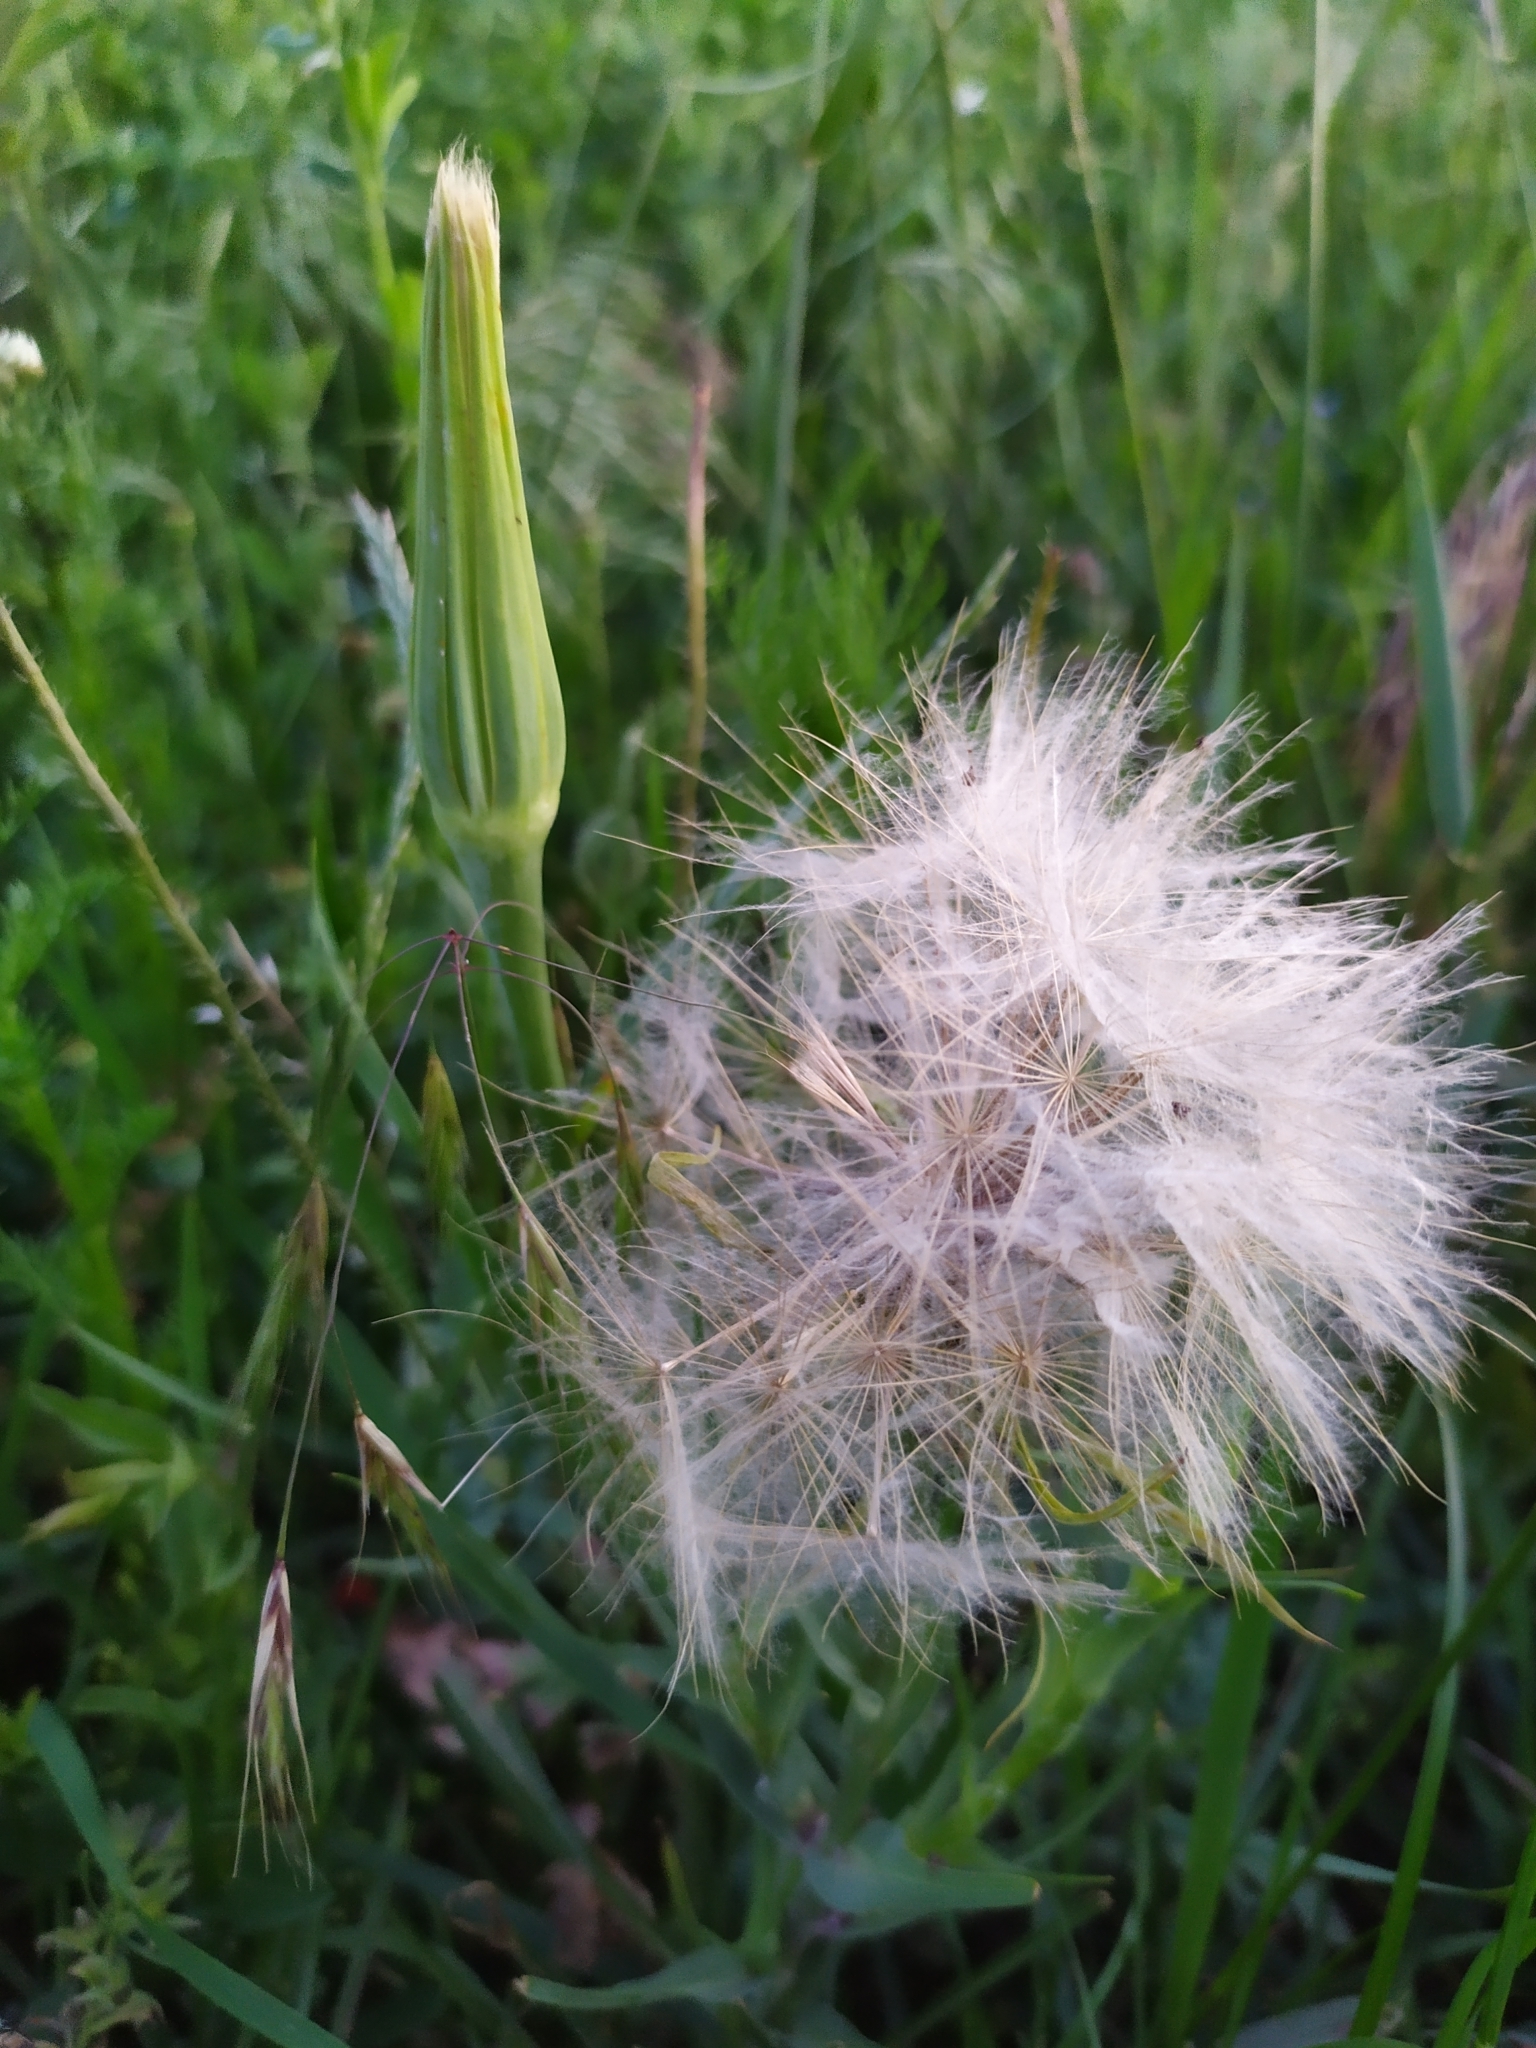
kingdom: Plantae
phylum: Tracheophyta
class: Magnoliopsida
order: Asterales
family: Asteraceae
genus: Tragopogon
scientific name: Tragopogon dubius
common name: Yellow salsify
